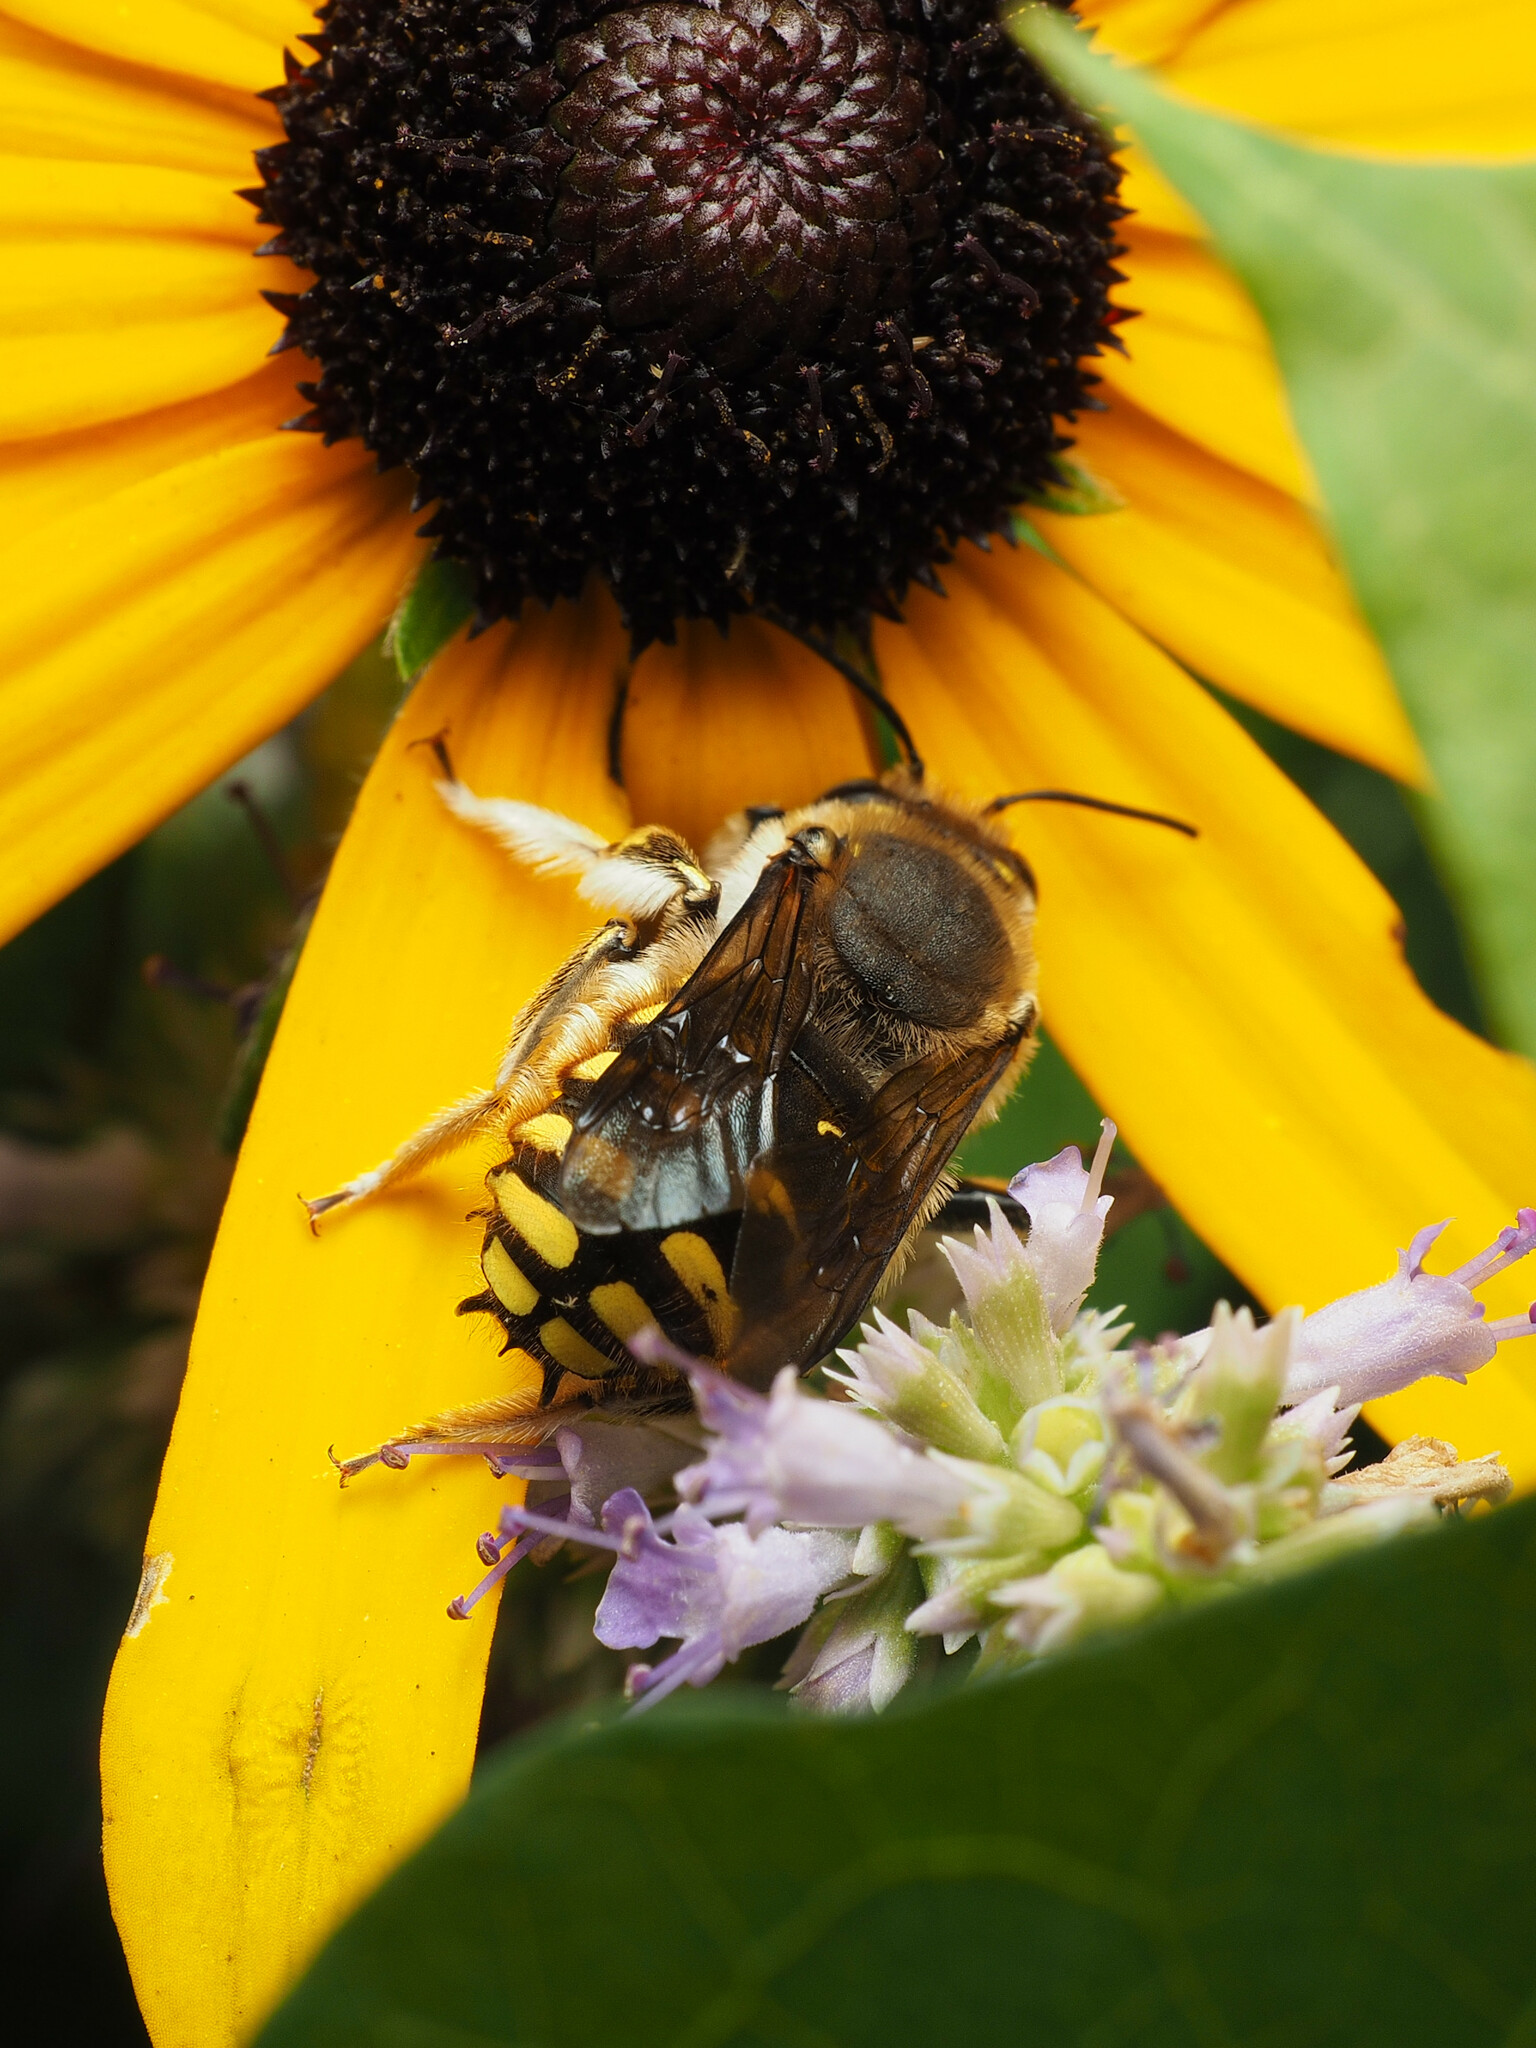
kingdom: Animalia
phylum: Arthropoda
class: Insecta
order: Hymenoptera
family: Megachilidae
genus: Anthidium
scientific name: Anthidium manicatum
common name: Wool carder bee
